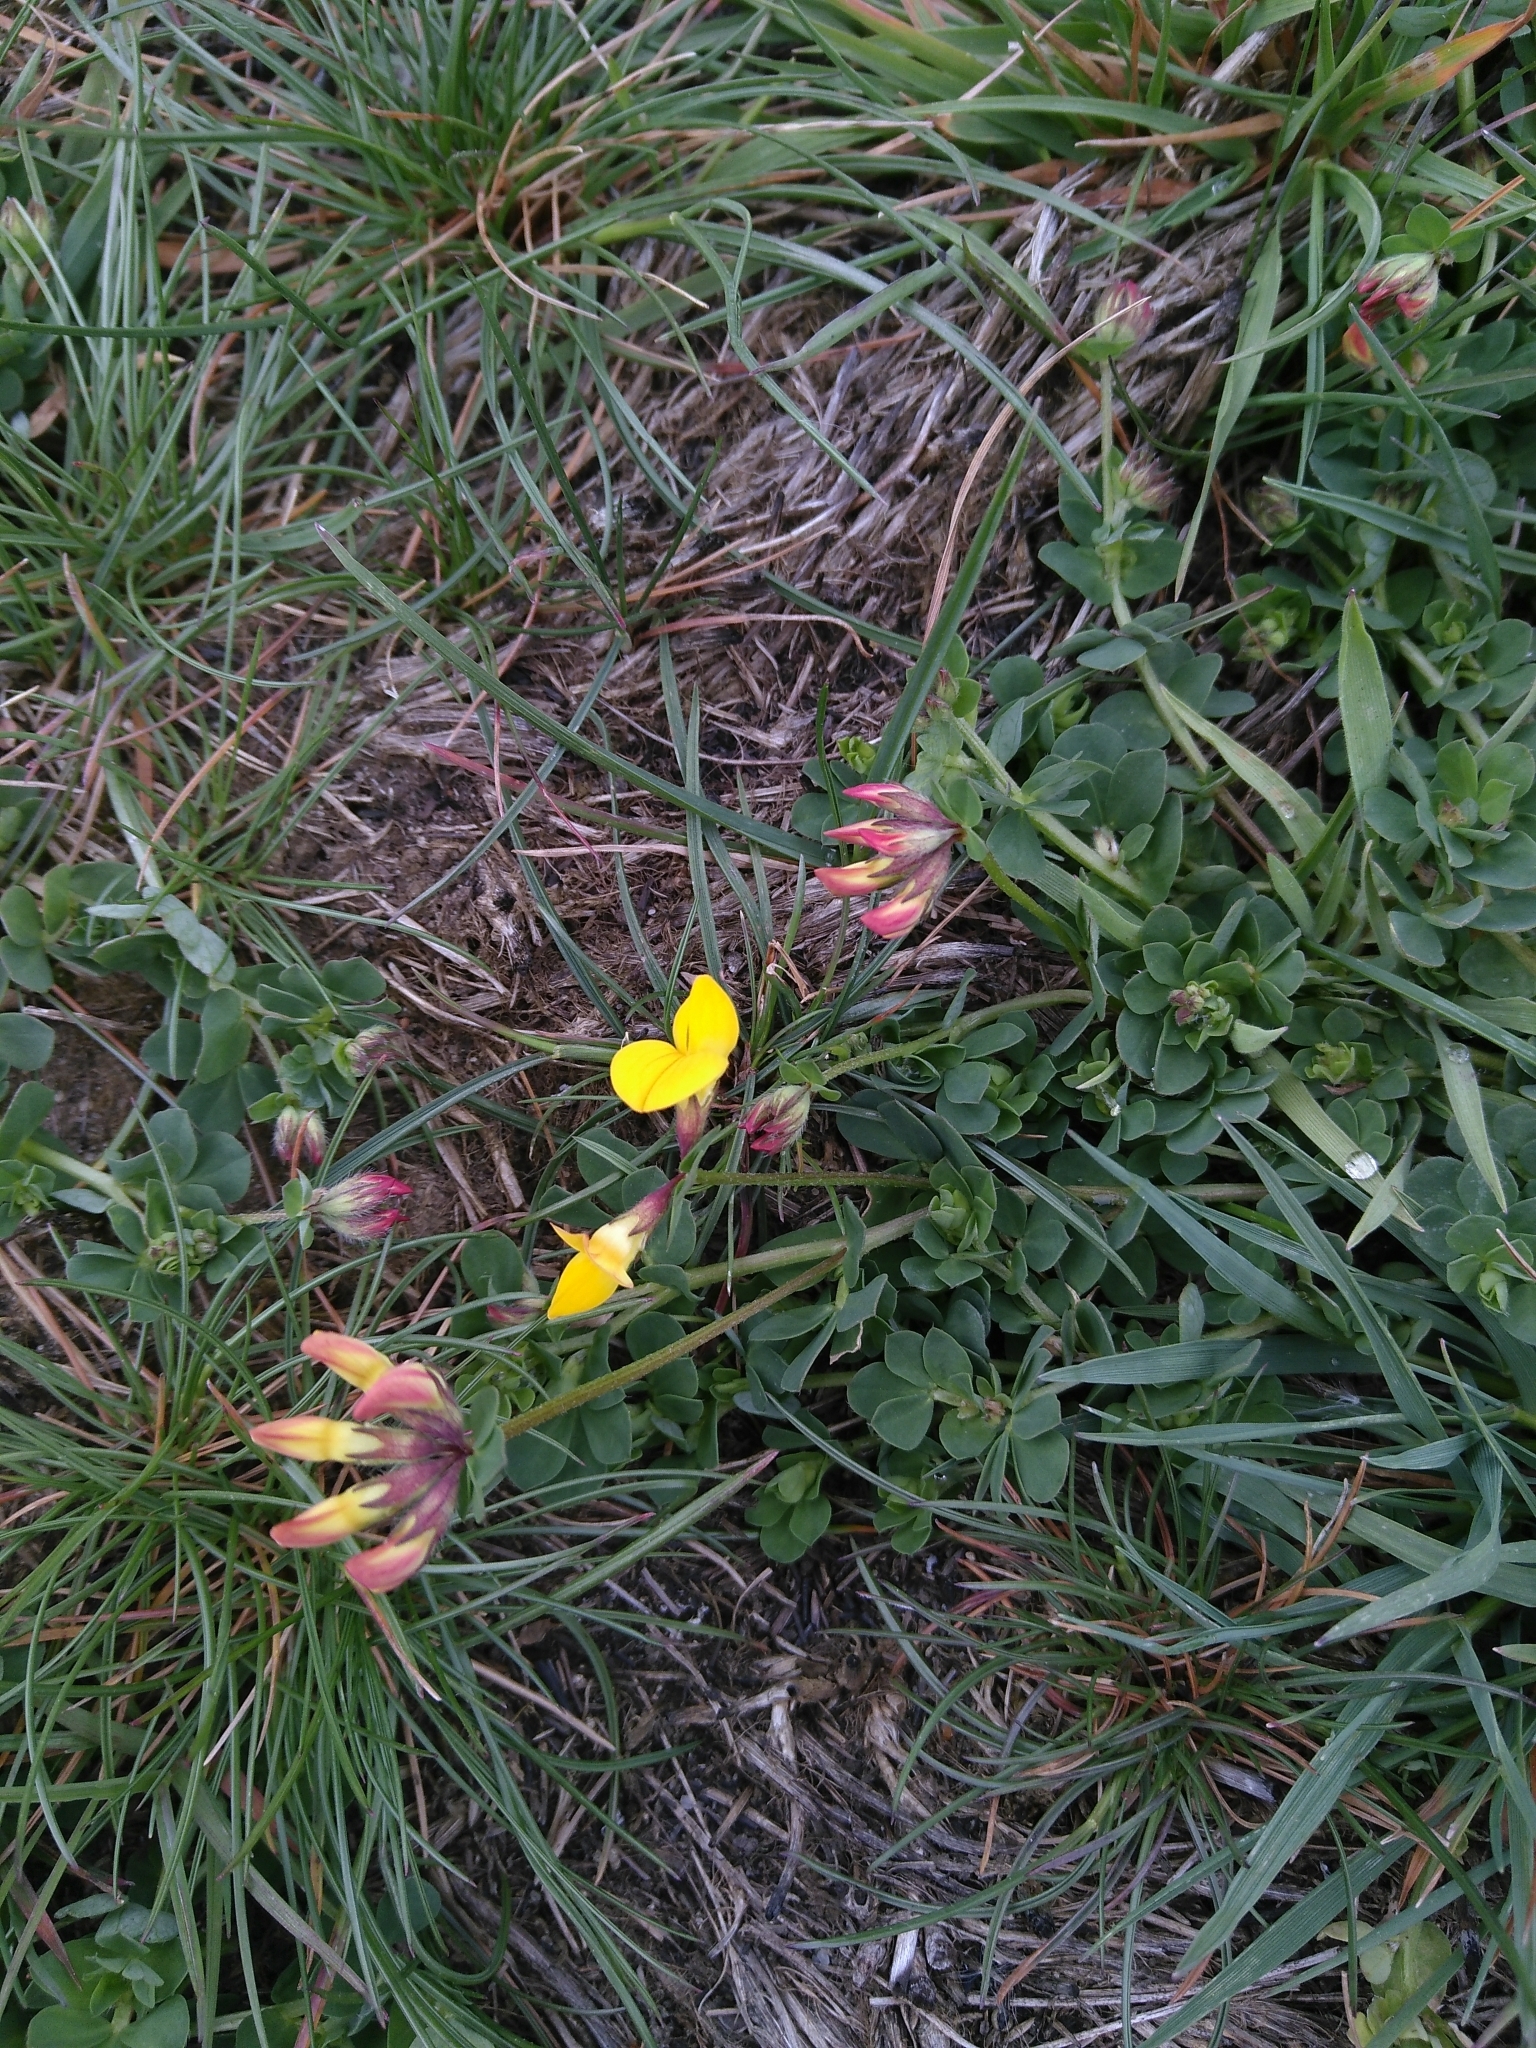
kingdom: Plantae
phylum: Tracheophyta
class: Magnoliopsida
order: Fabales
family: Fabaceae
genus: Lotus
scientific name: Lotus corniculatus
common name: Common bird's-foot-trefoil
